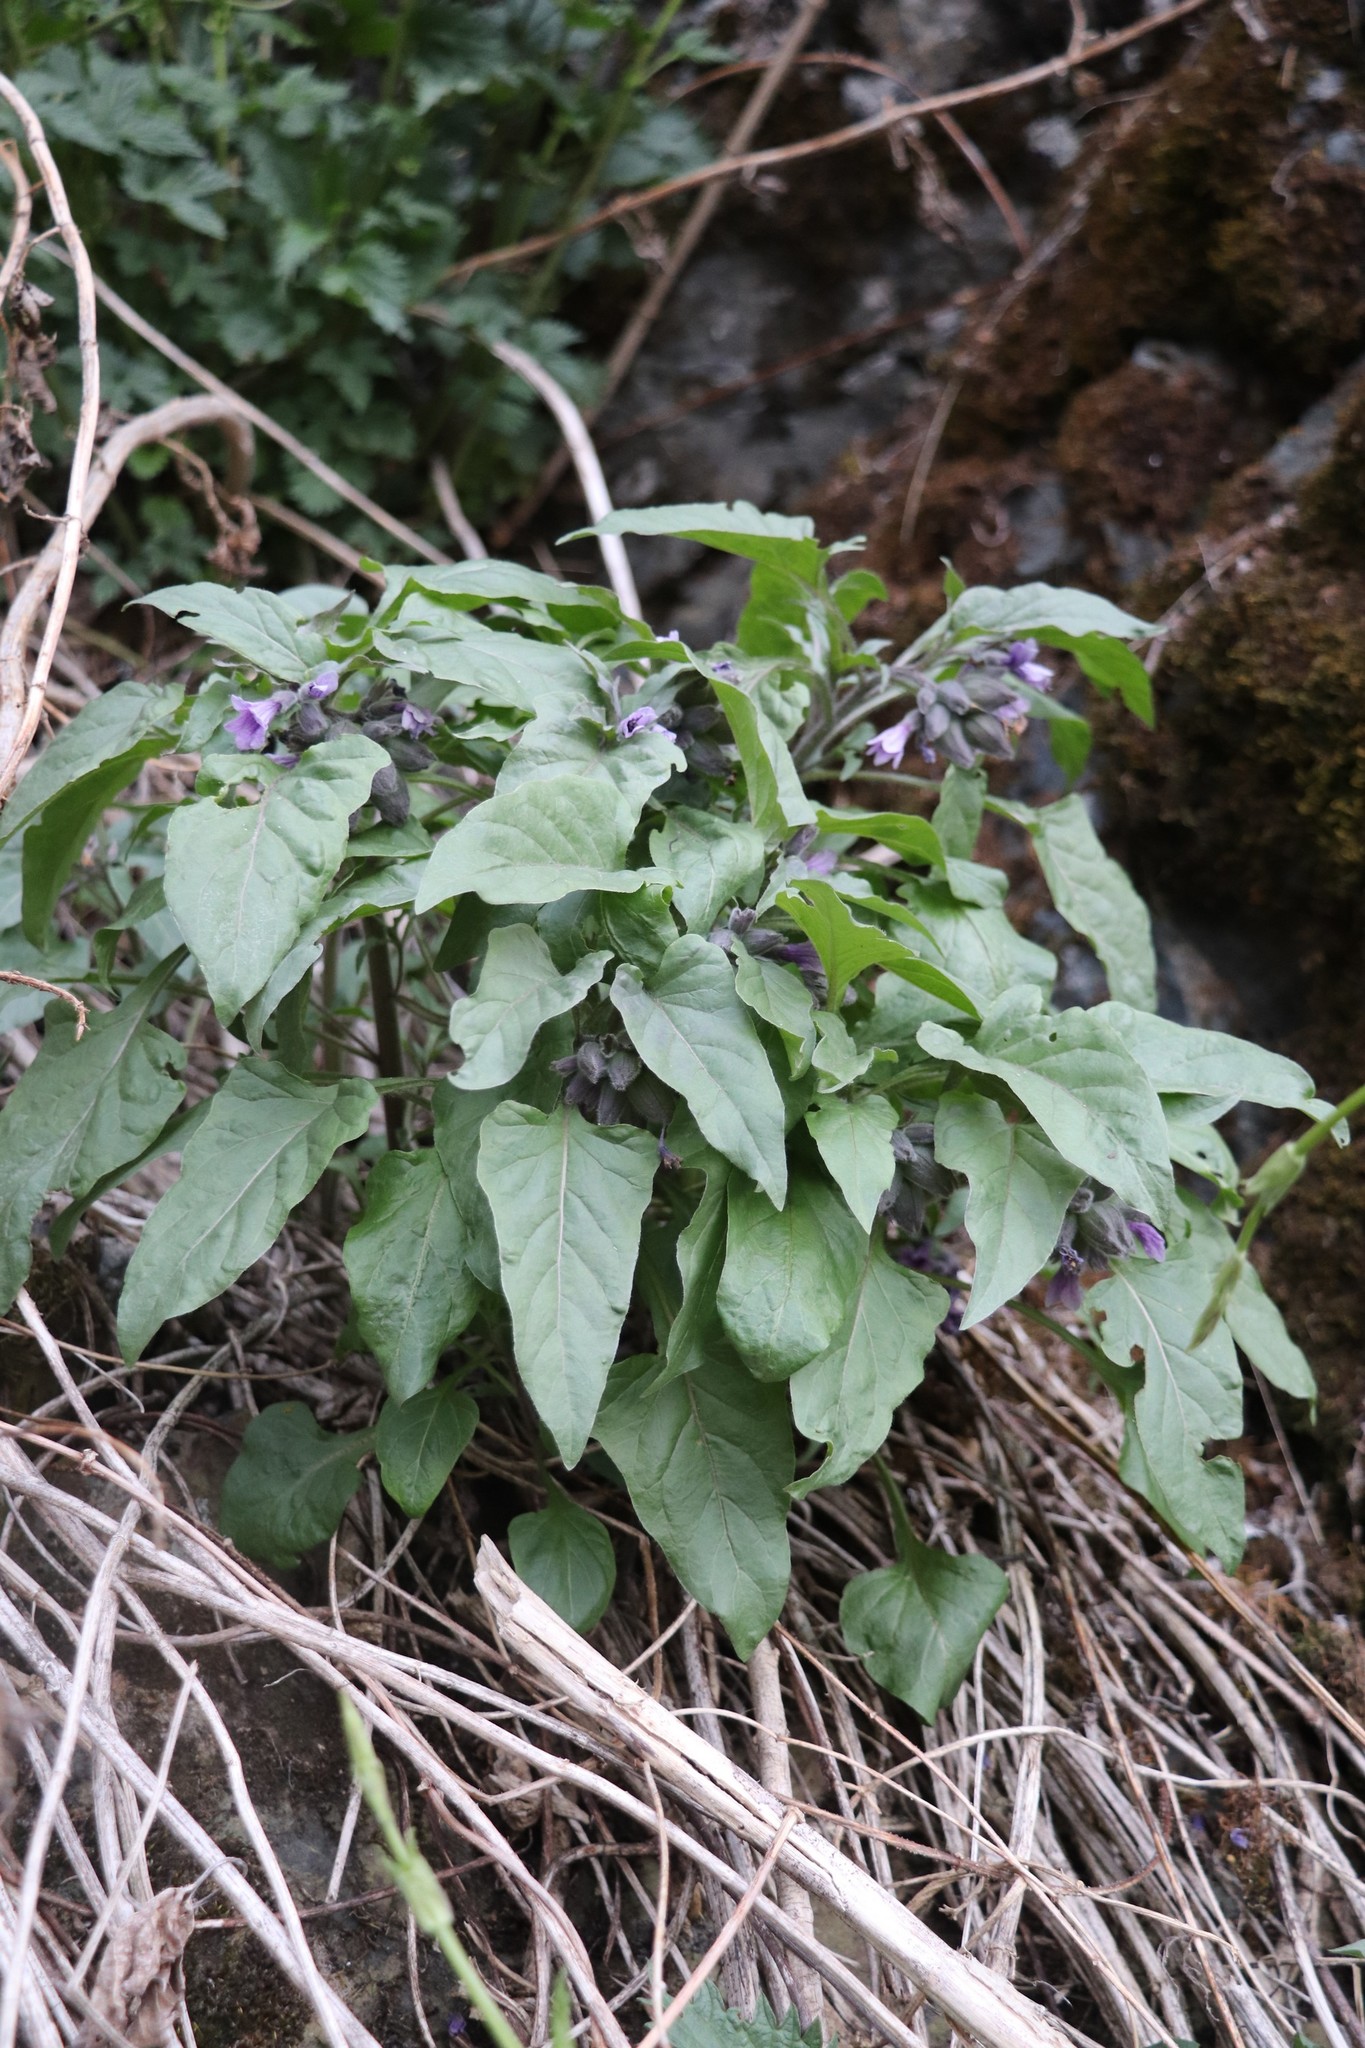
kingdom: Plantae
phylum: Tracheophyta
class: Magnoliopsida
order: Solanales
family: Solanaceae
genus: Physochlaina
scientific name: Physochlaina physaloides
